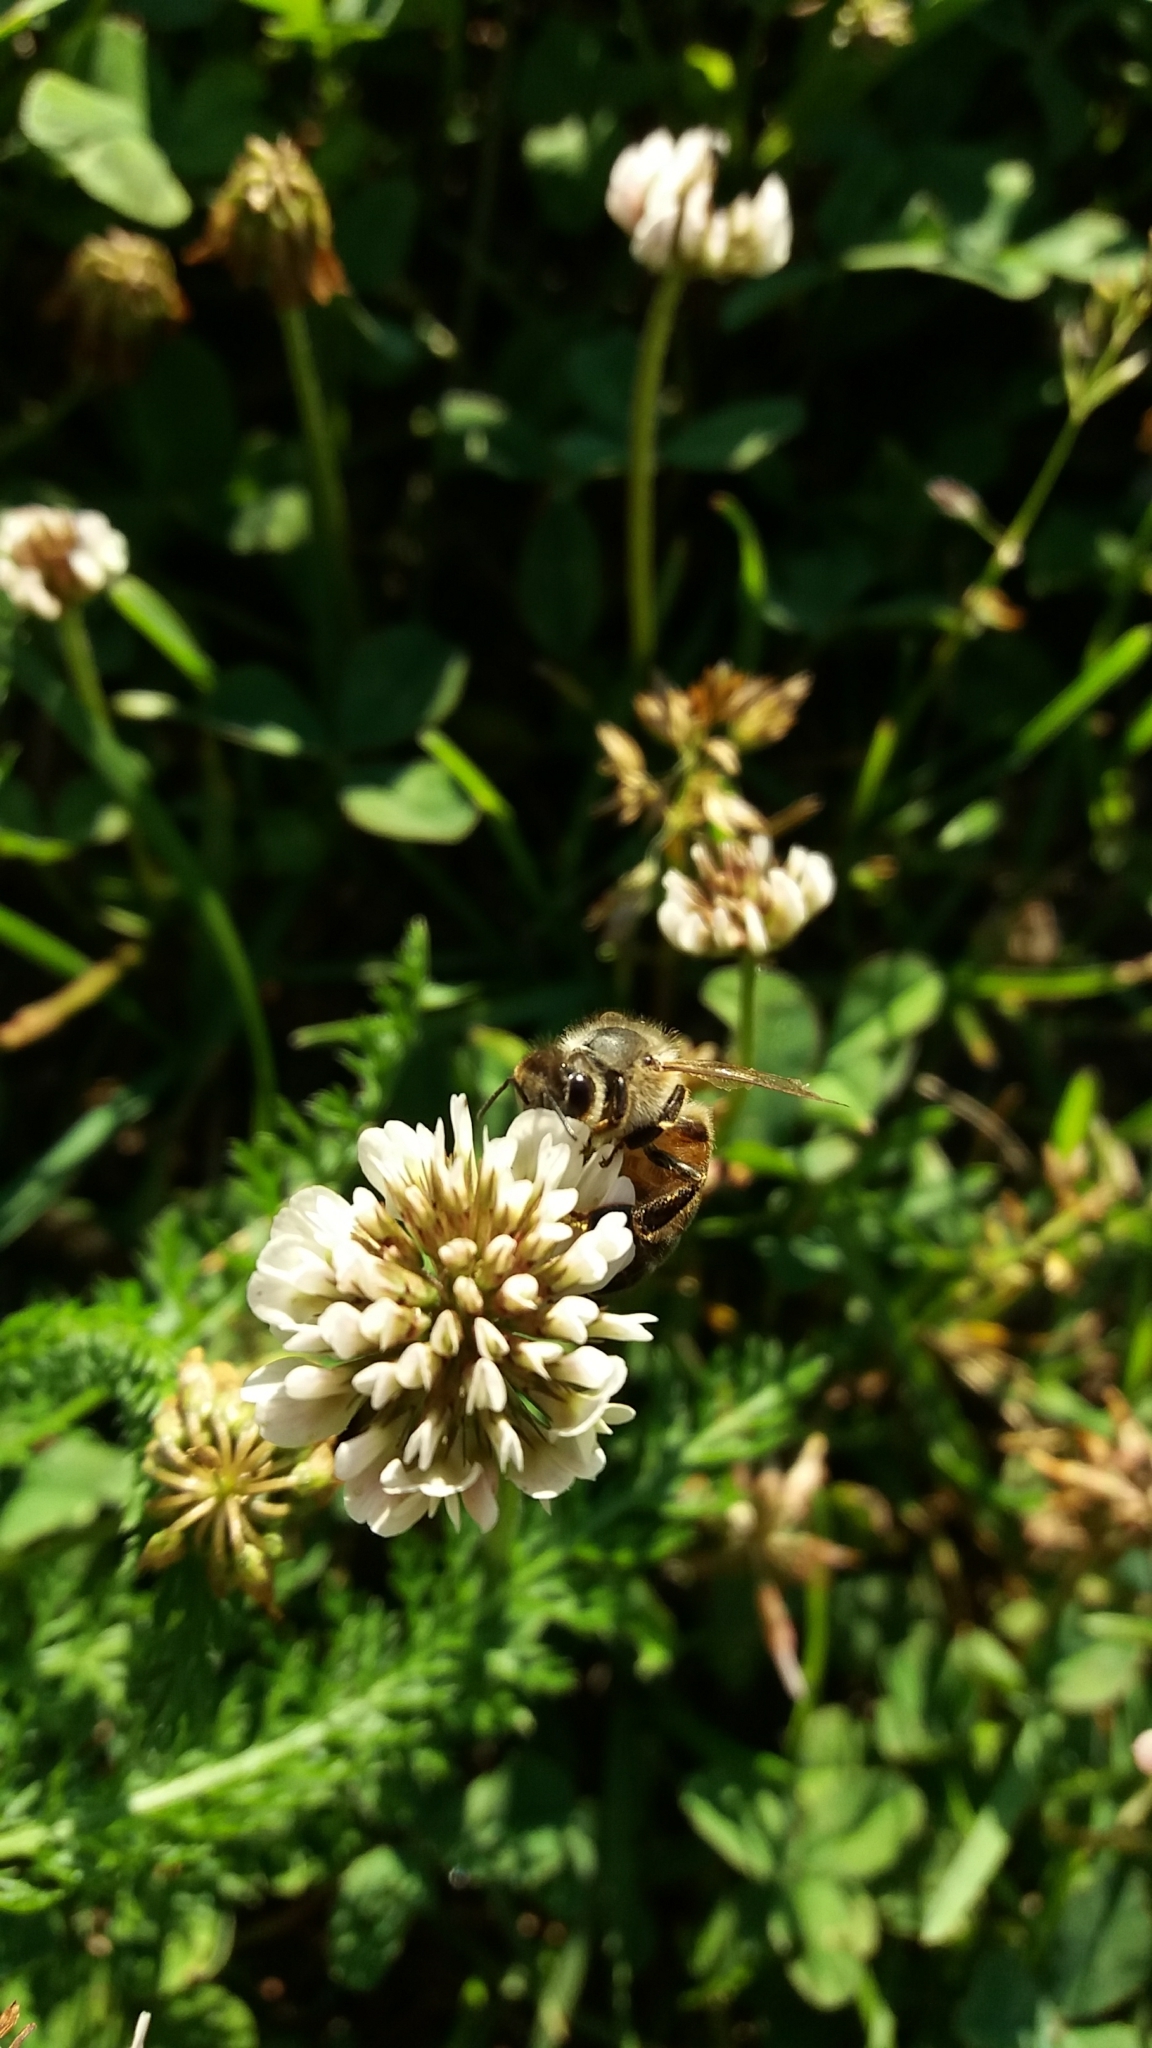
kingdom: Animalia
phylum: Arthropoda
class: Insecta
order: Hymenoptera
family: Apidae
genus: Apis
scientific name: Apis mellifera
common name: Honey bee
